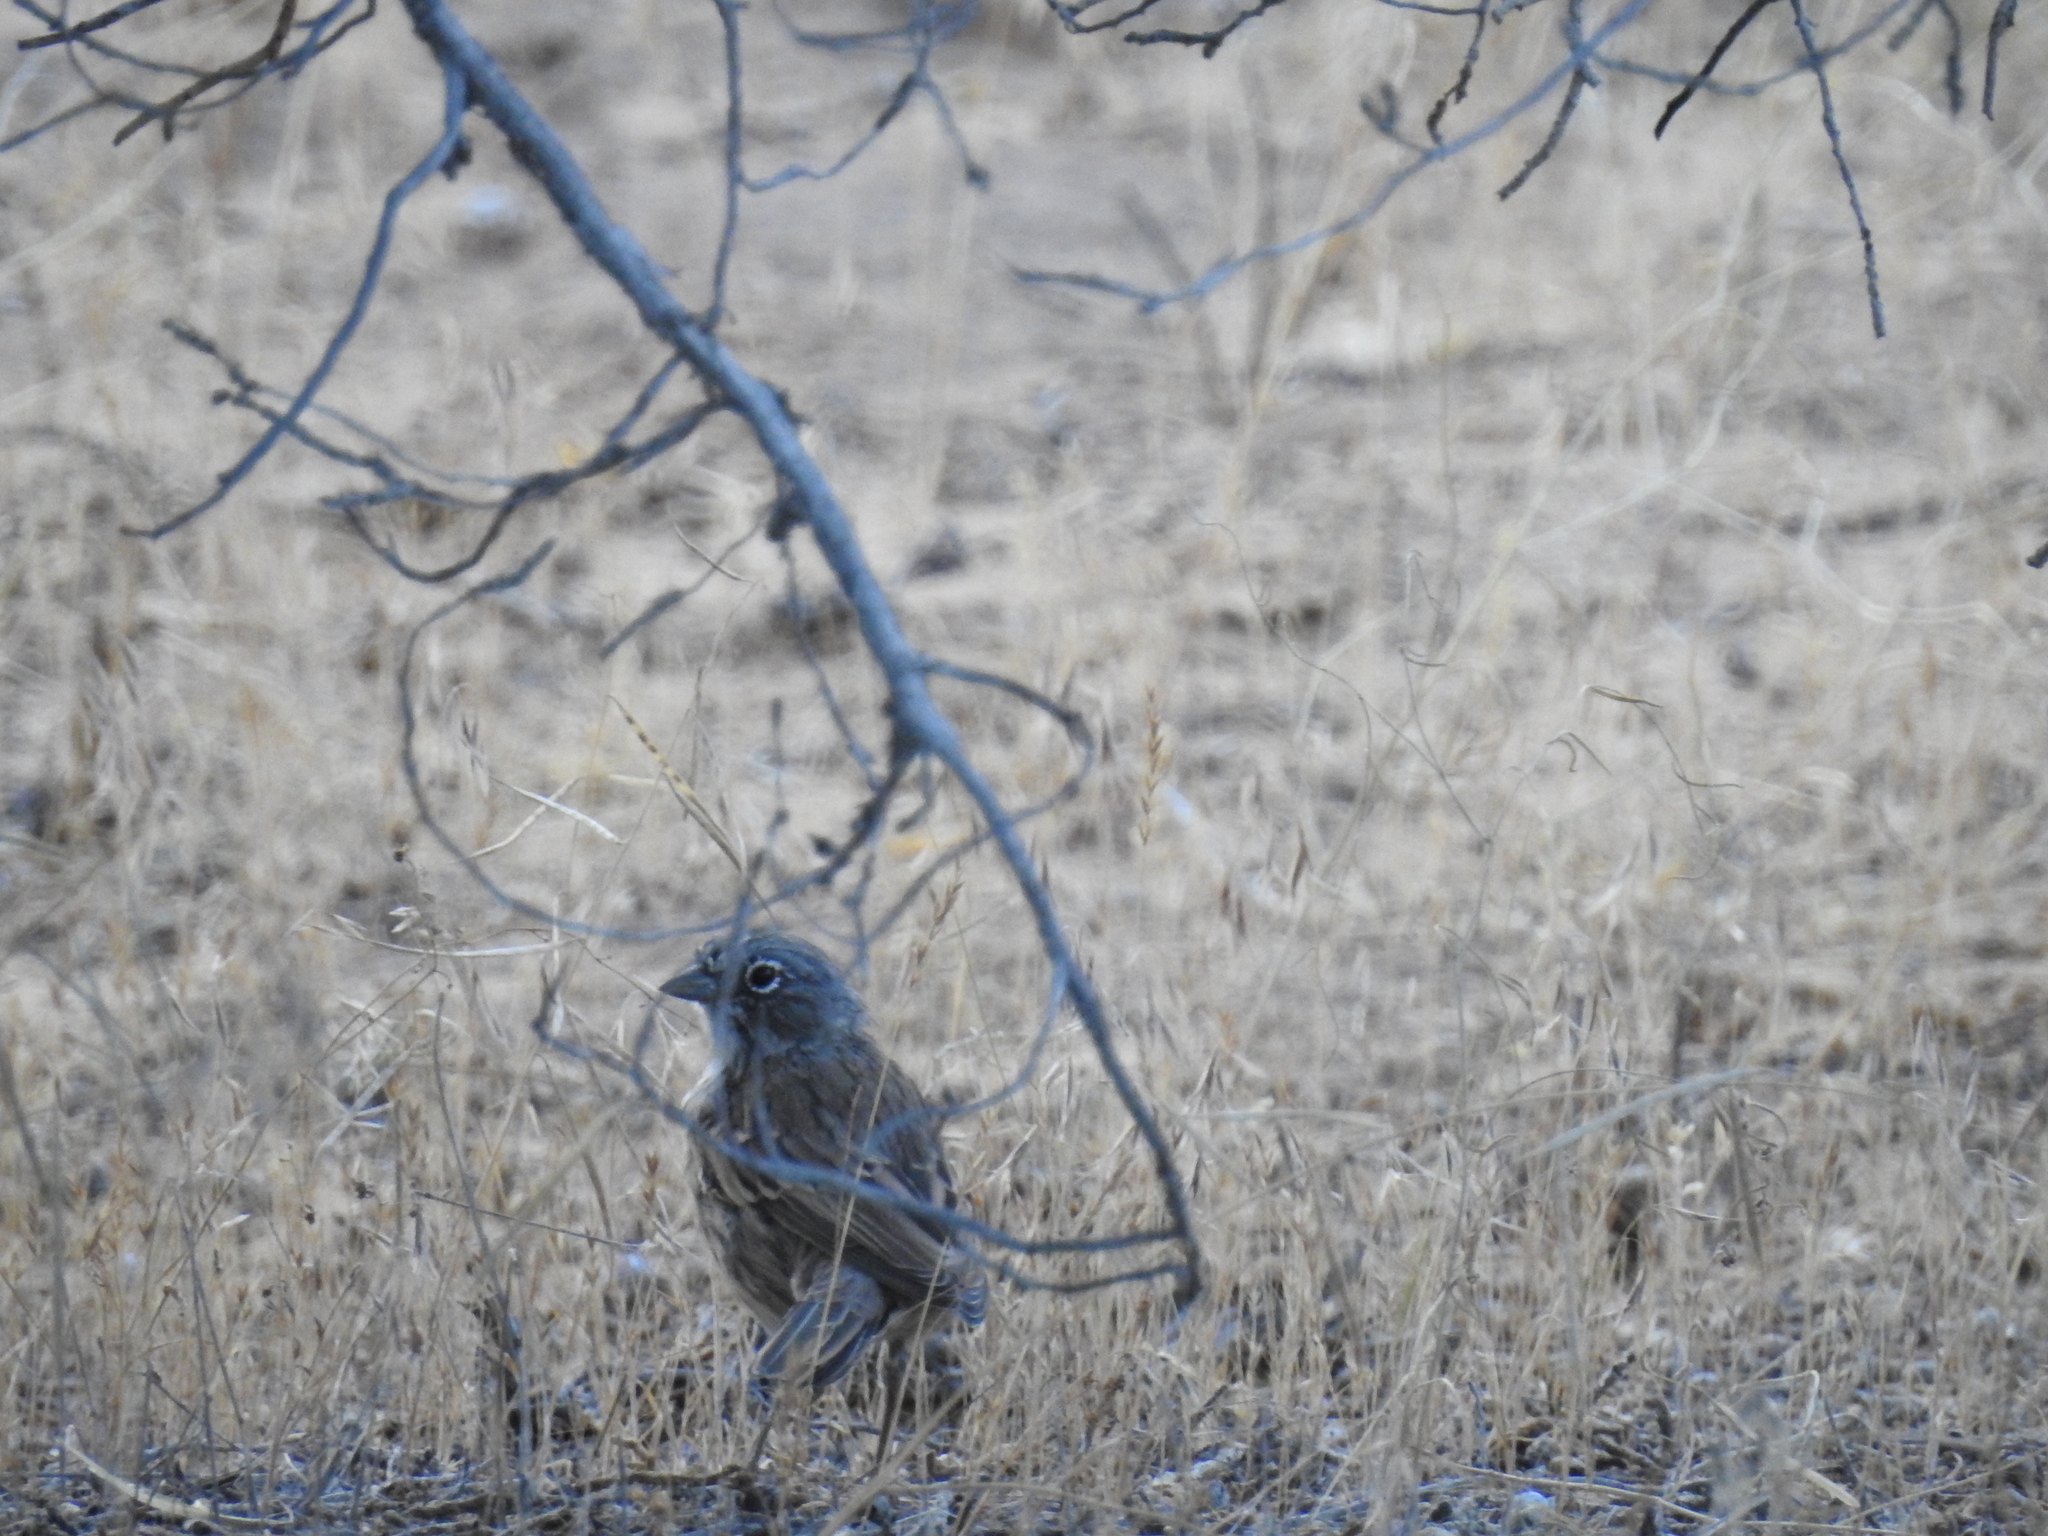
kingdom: Animalia
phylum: Chordata
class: Aves
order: Passeriformes
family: Passerellidae
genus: Artemisiospiza
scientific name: Artemisiospiza nevadensis
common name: Sagebrush sparrow
